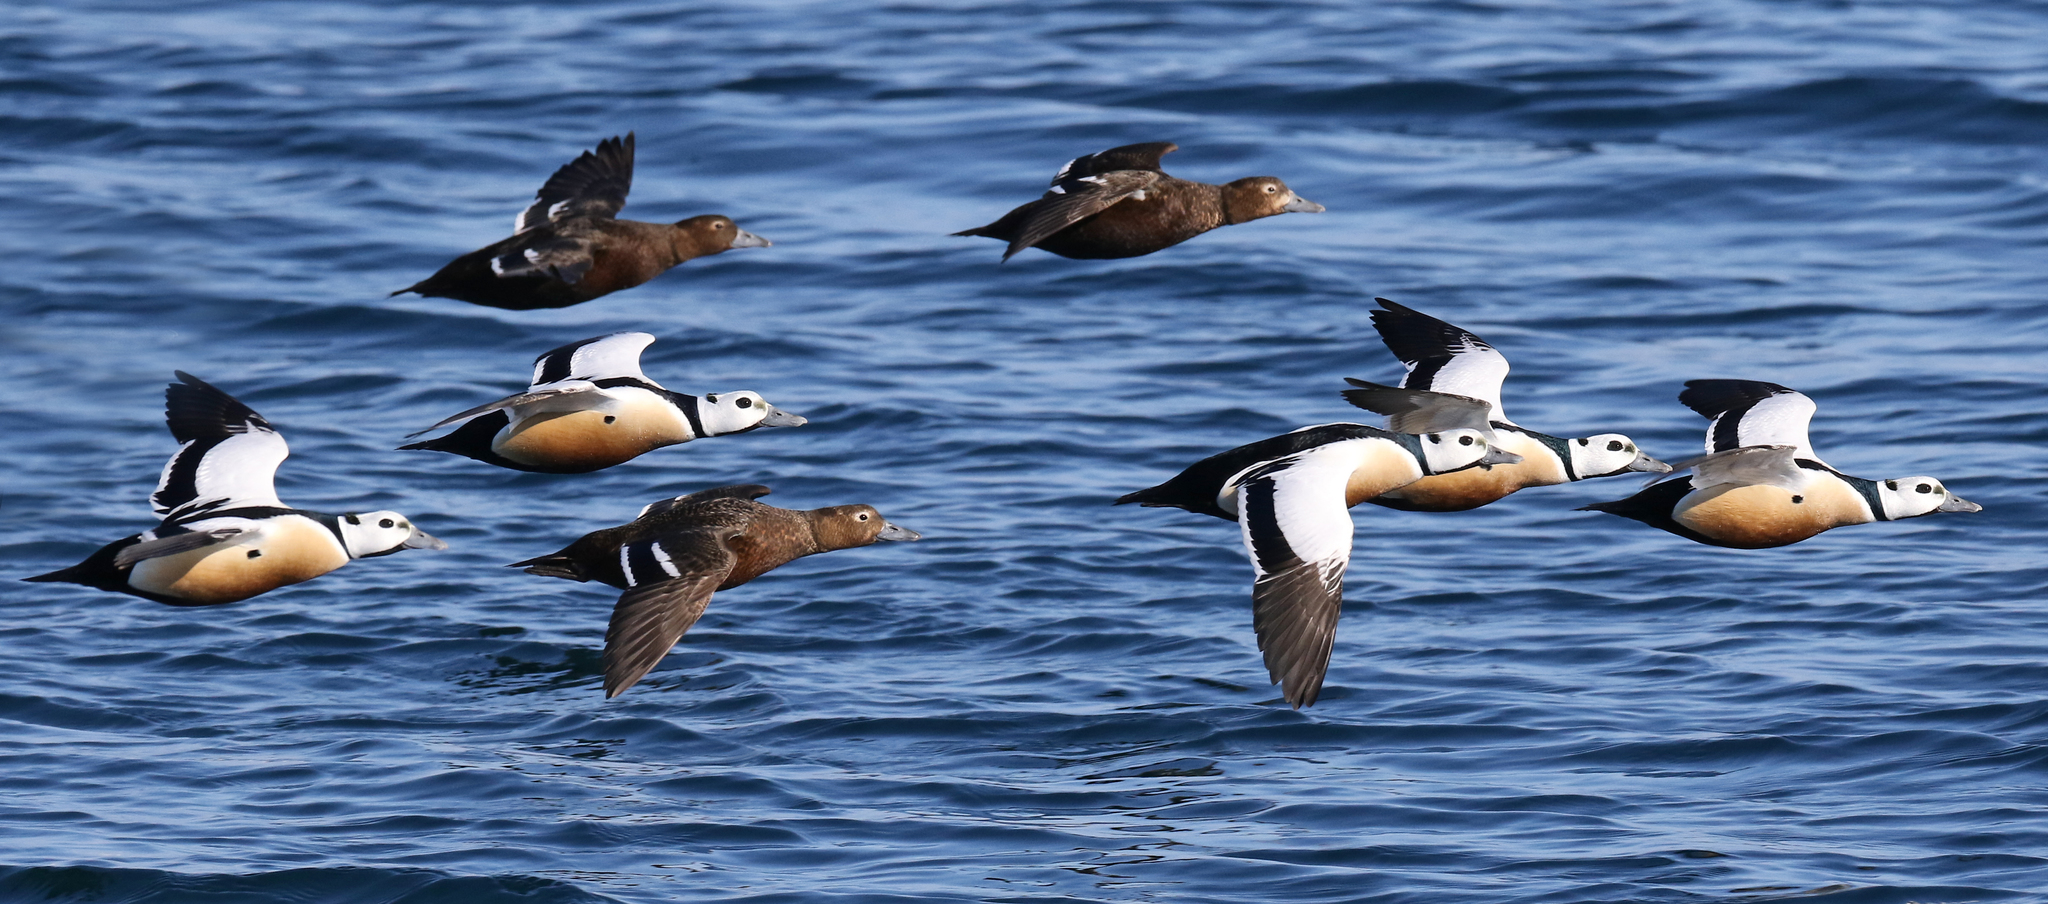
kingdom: Animalia
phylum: Chordata
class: Aves
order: Anseriformes
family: Anatidae
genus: Polysticta
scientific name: Polysticta stelleri
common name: Steller's eider
